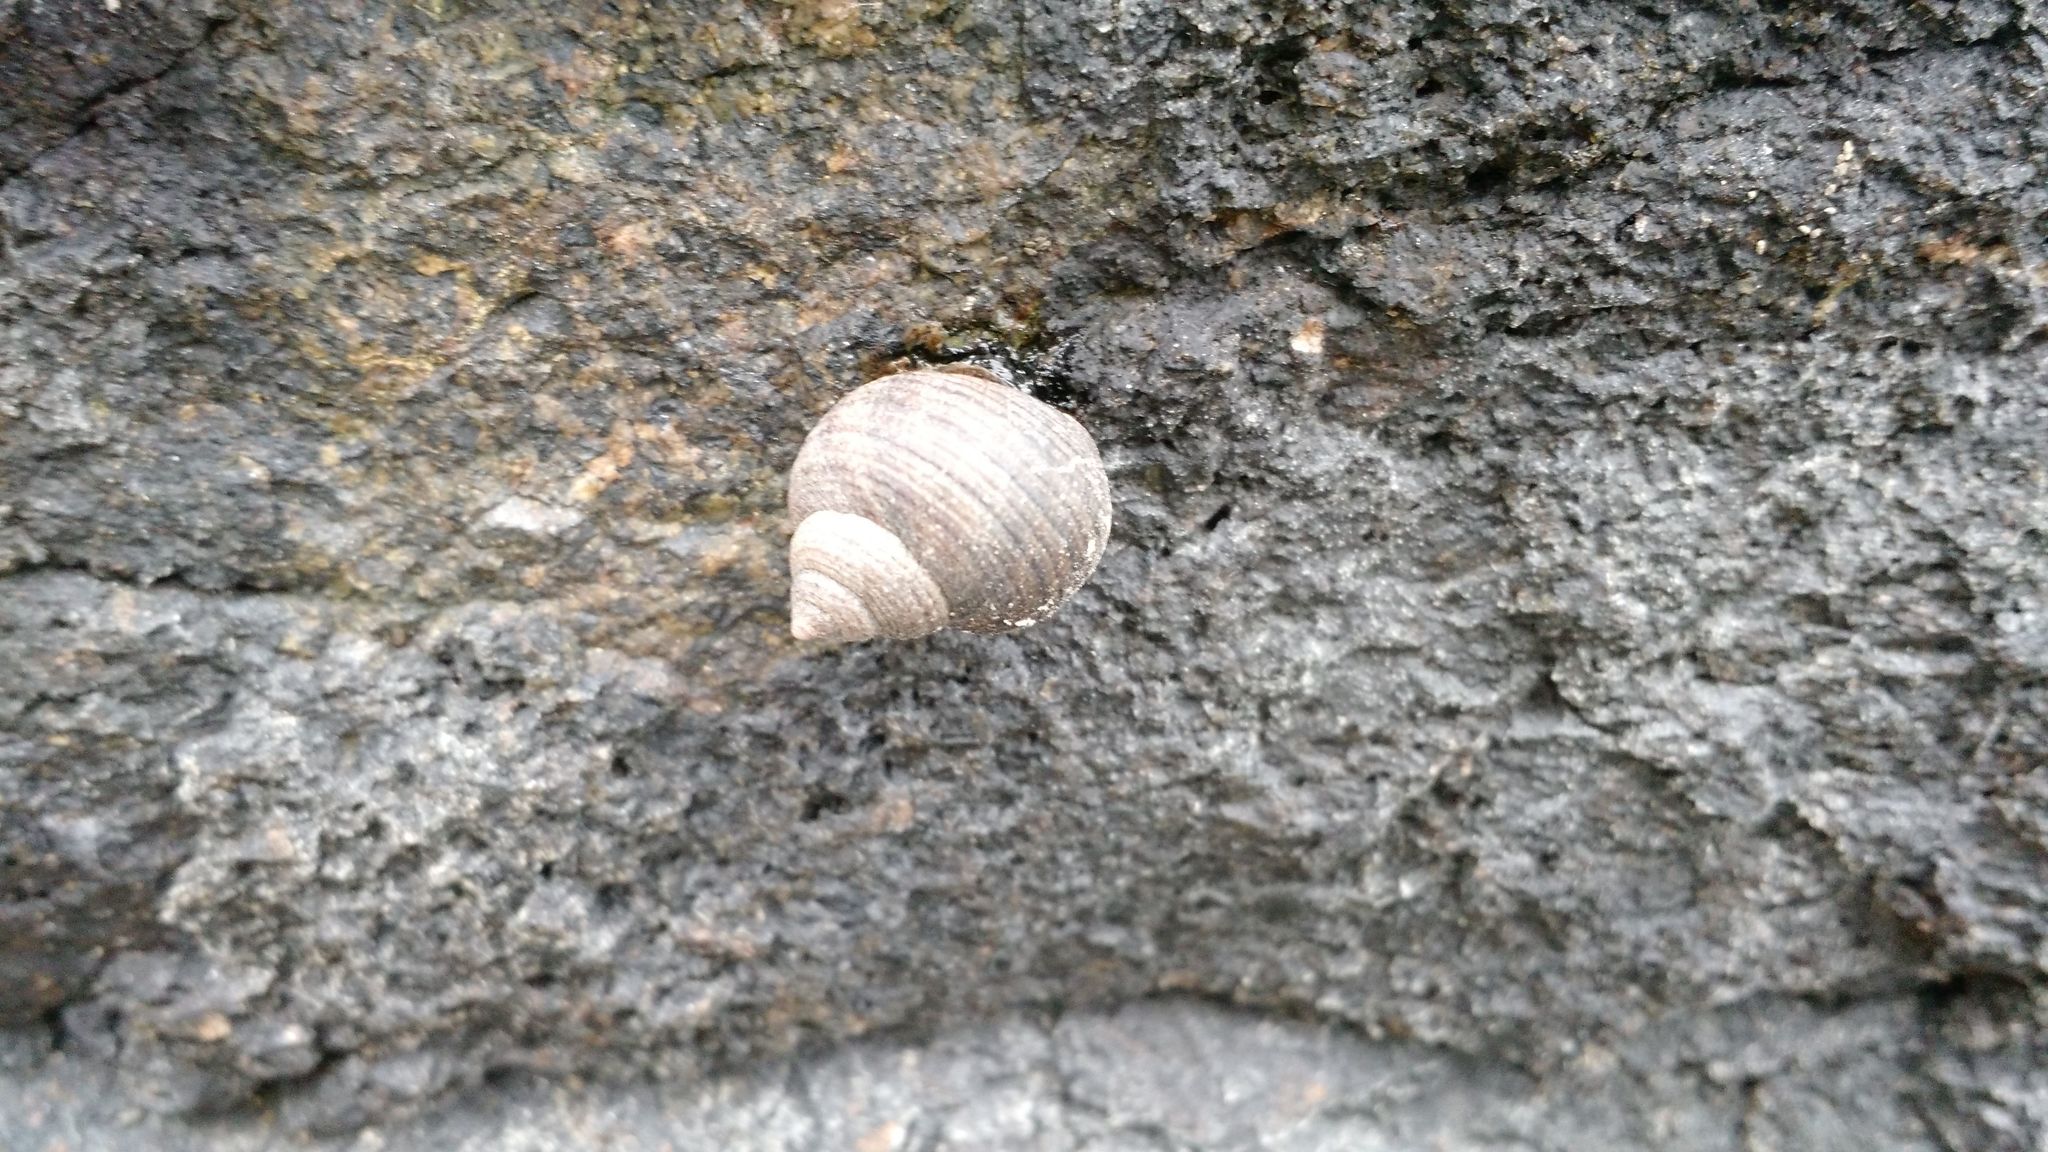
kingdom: Animalia
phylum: Mollusca
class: Gastropoda
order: Littorinimorpha
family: Littorinidae
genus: Littorina
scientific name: Littorina littorea
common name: Common periwinkle
